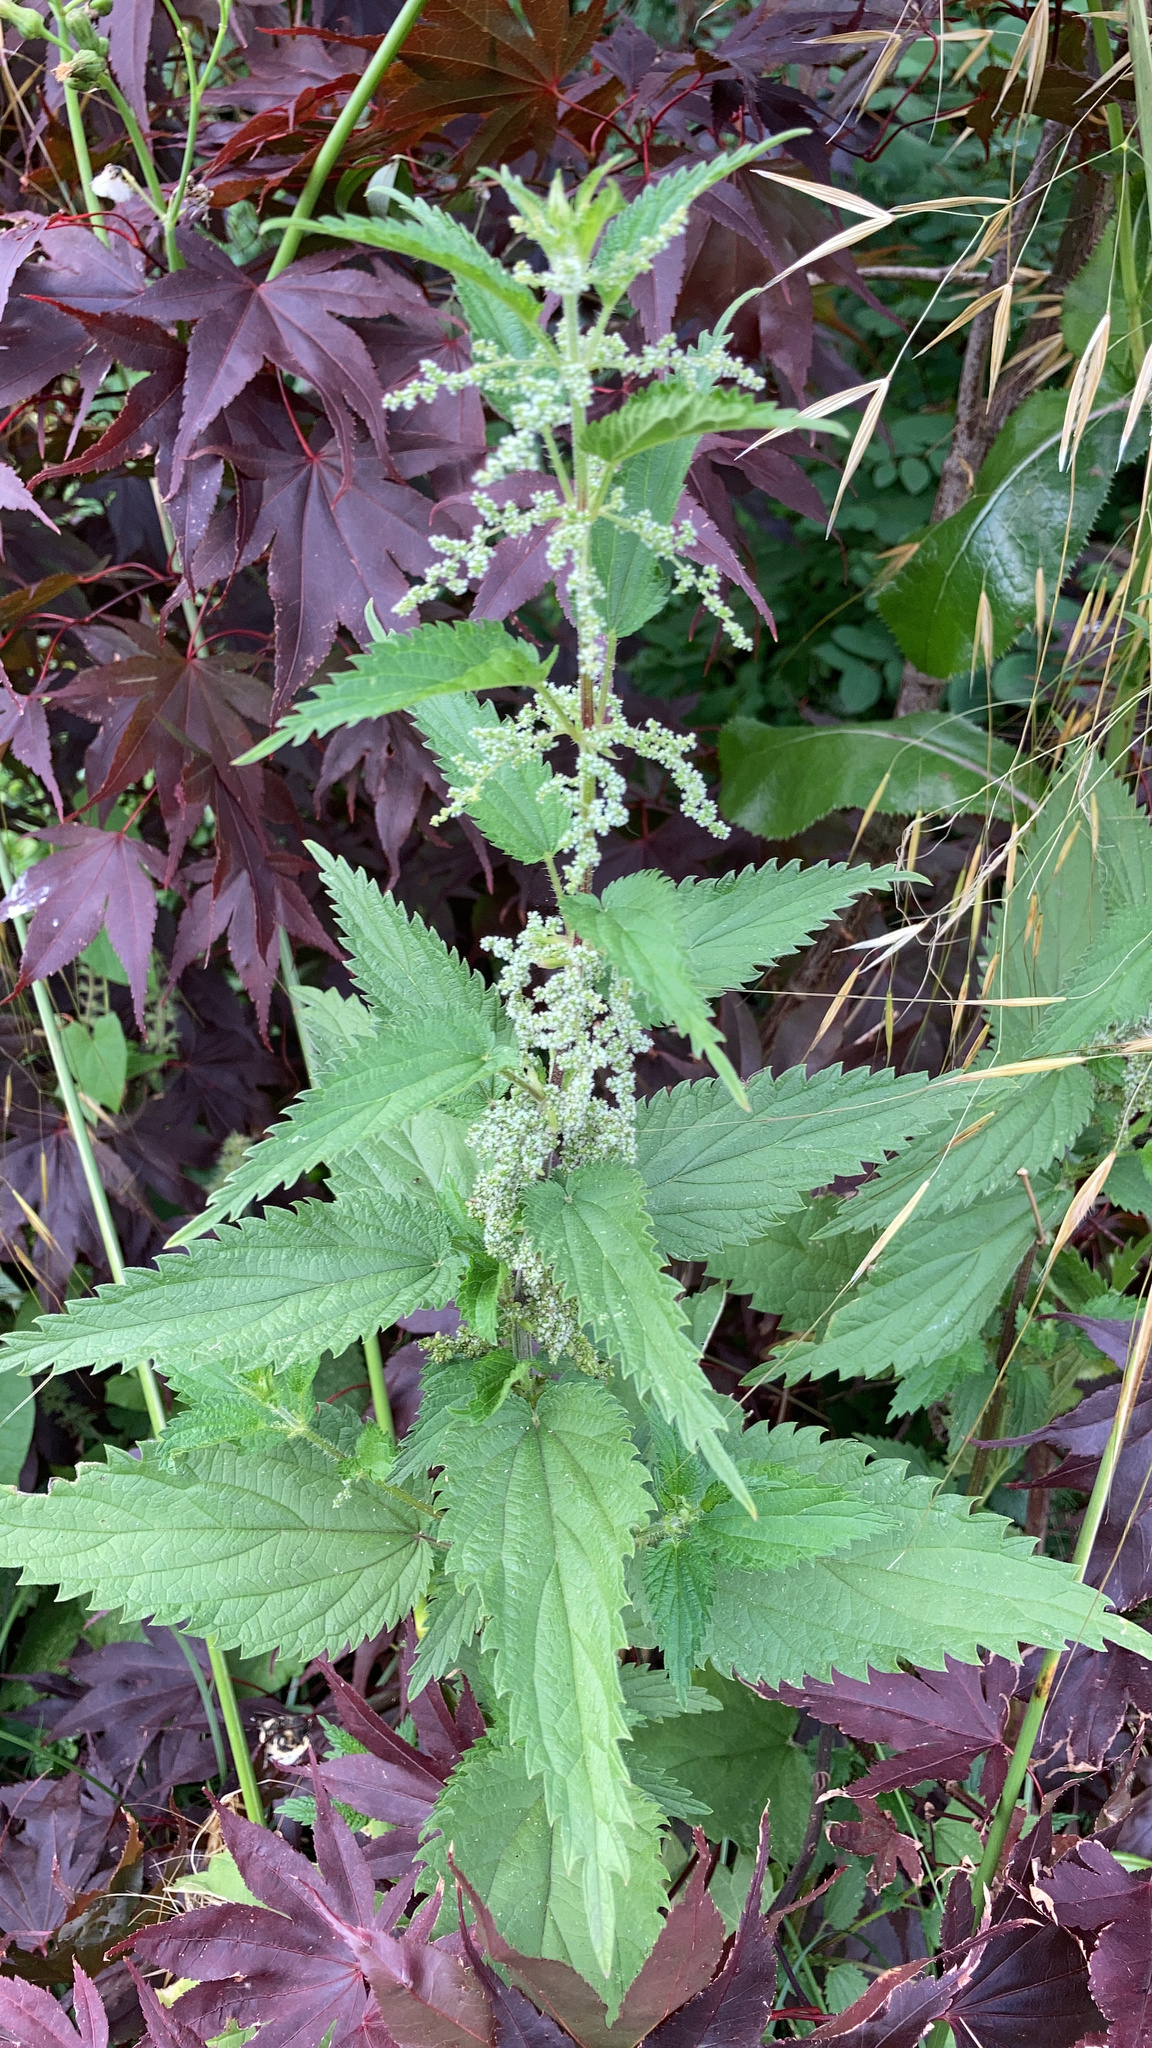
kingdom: Plantae
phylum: Tracheophyta
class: Magnoliopsida
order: Rosales
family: Urticaceae
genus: Urtica
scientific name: Urtica dioica
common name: Common nettle
